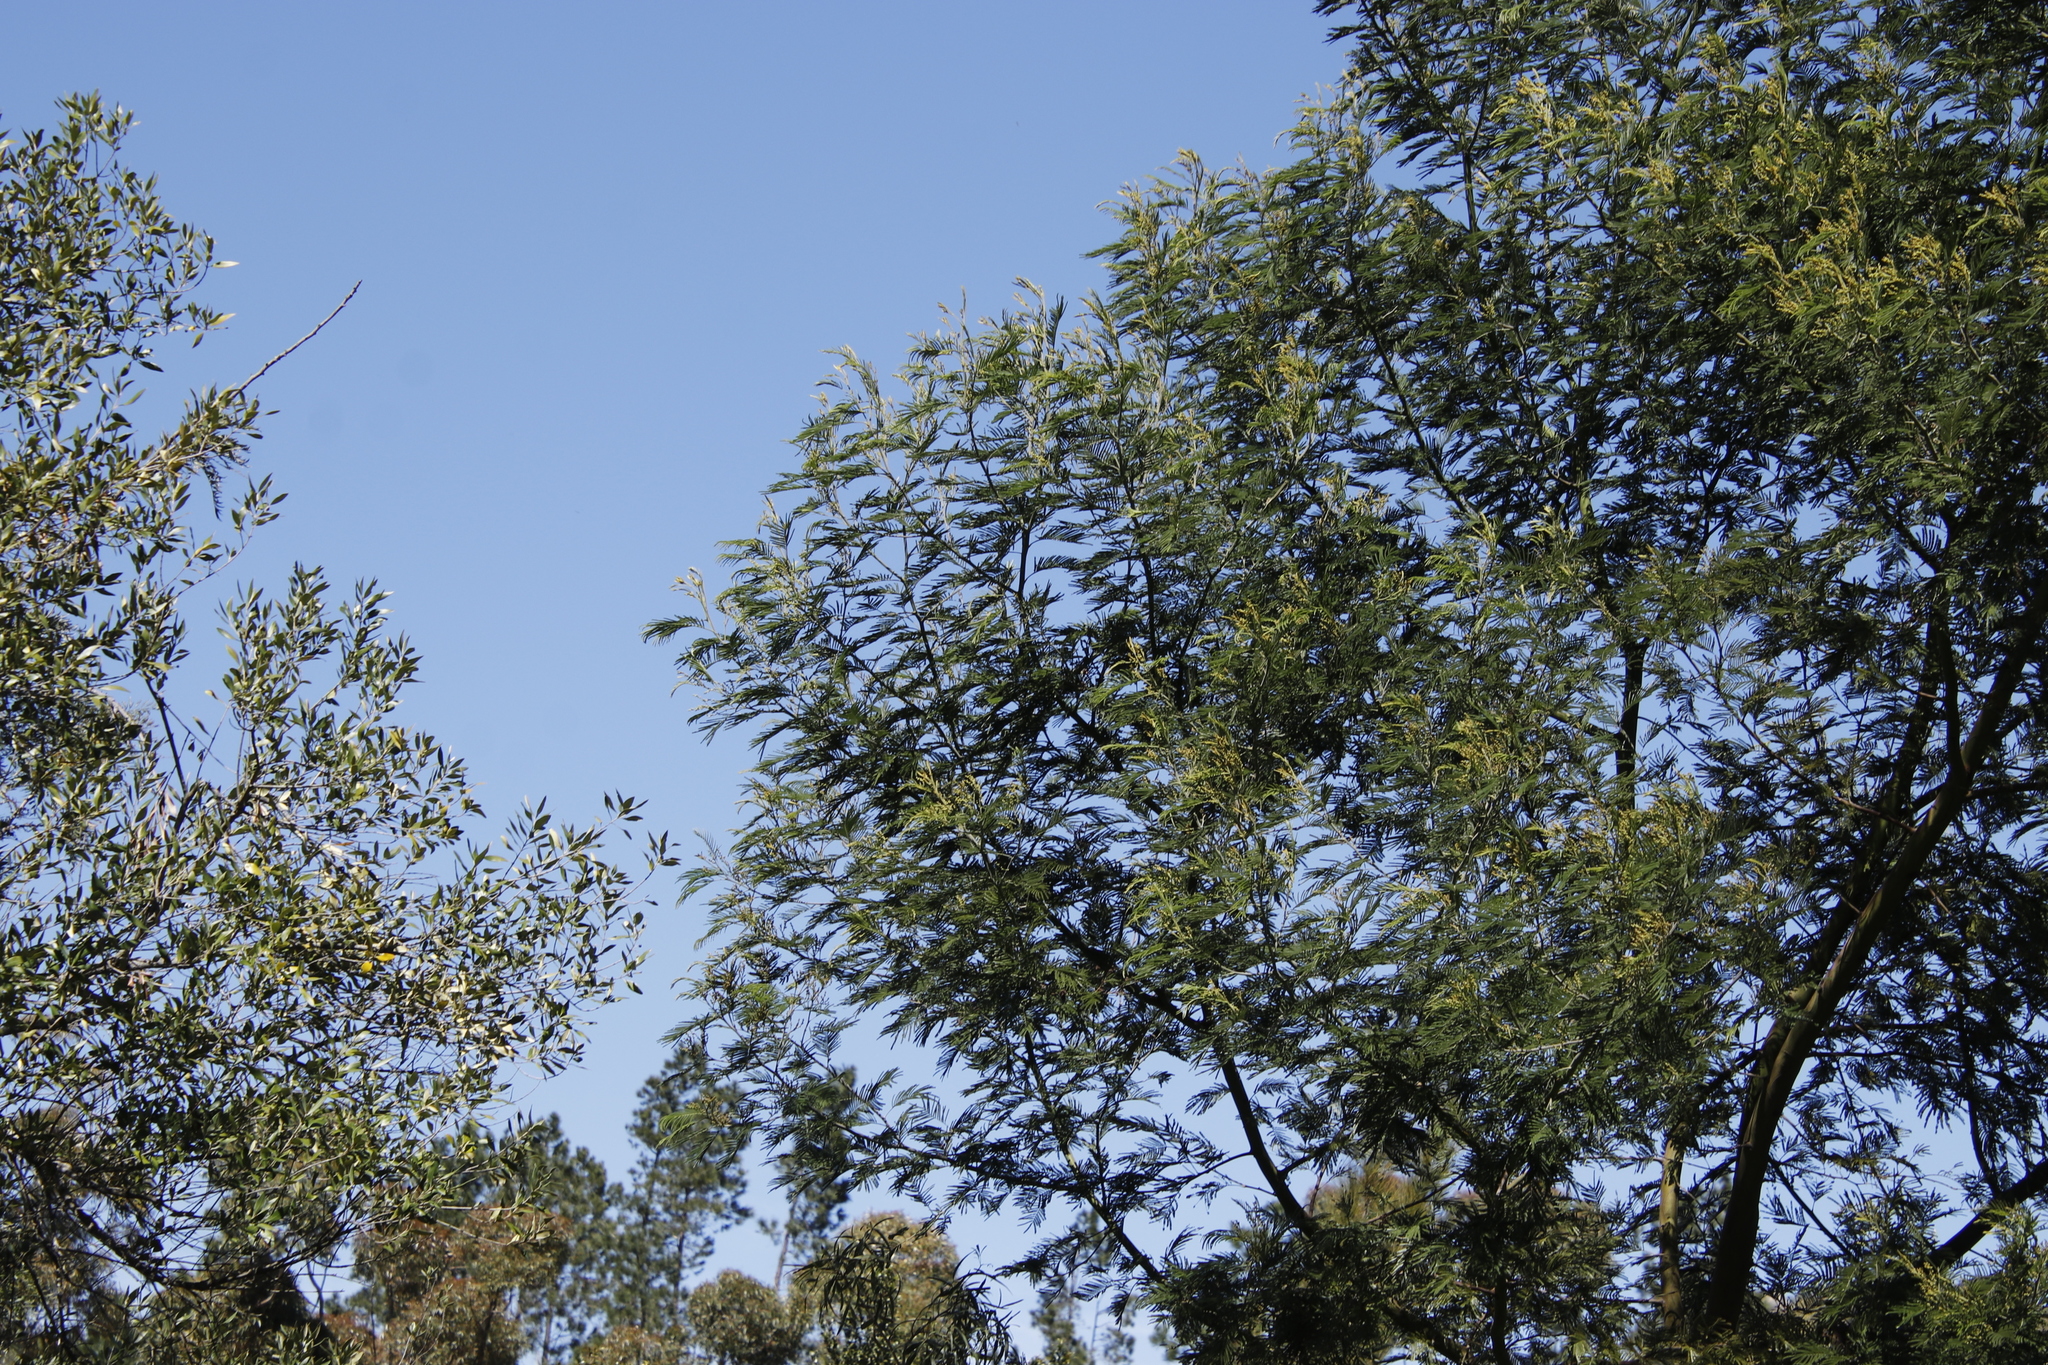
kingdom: Plantae
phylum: Tracheophyta
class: Magnoliopsida
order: Fabales
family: Fabaceae
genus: Acacia
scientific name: Acacia mearnsii
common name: Black wattle
